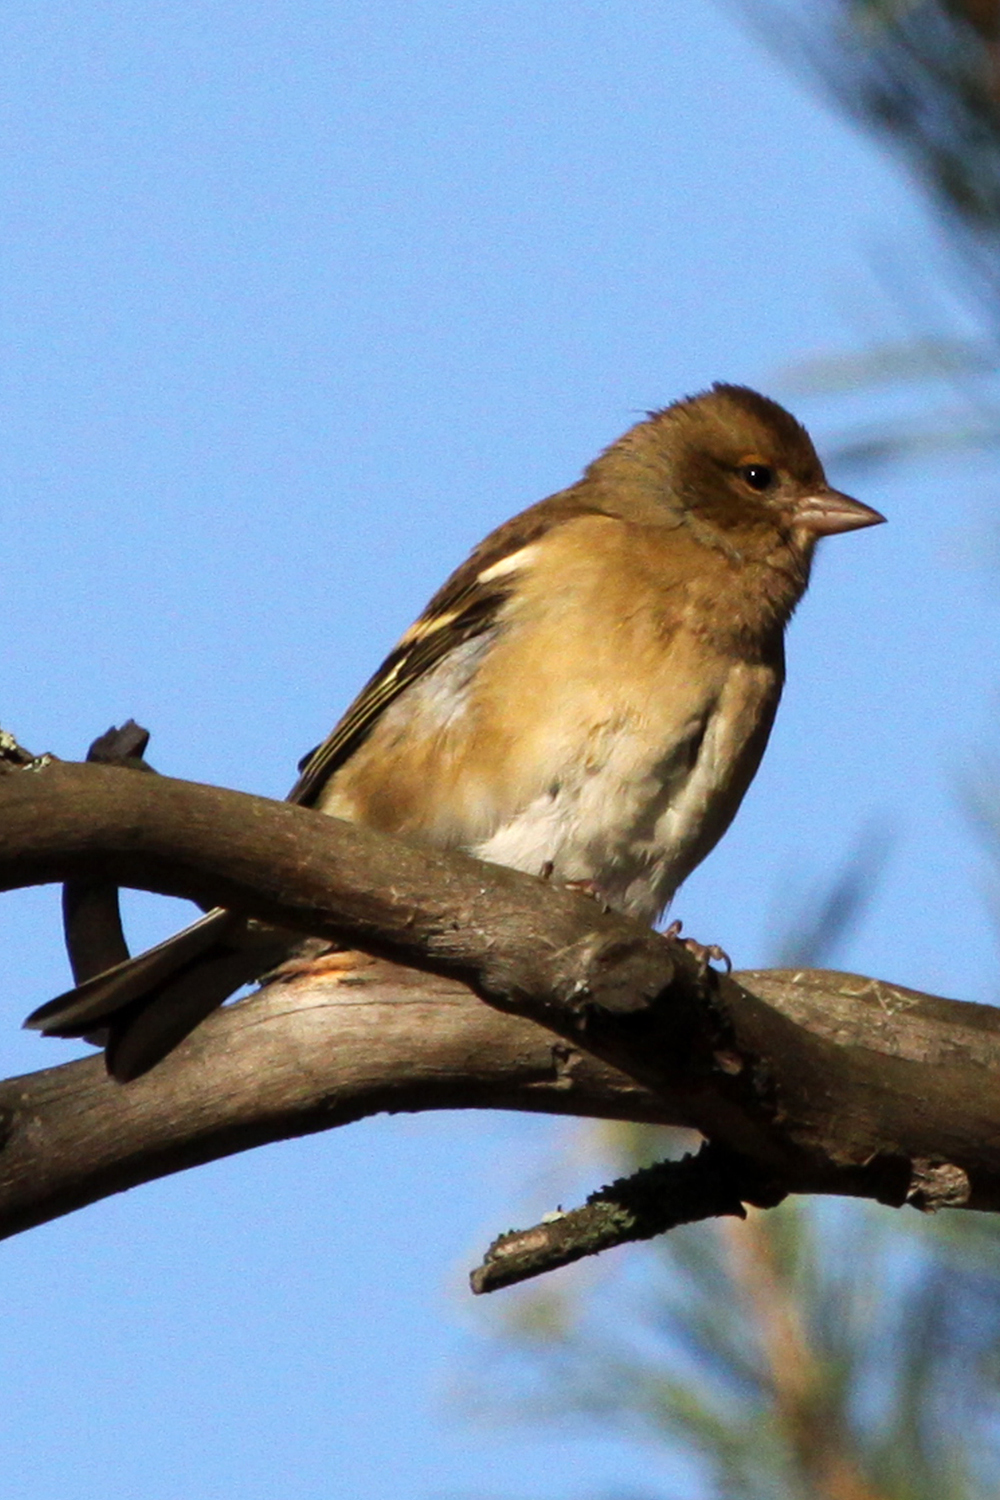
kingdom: Animalia
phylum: Chordata
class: Aves
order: Passeriformes
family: Fringillidae
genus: Fringilla
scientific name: Fringilla coelebs
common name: Common chaffinch
